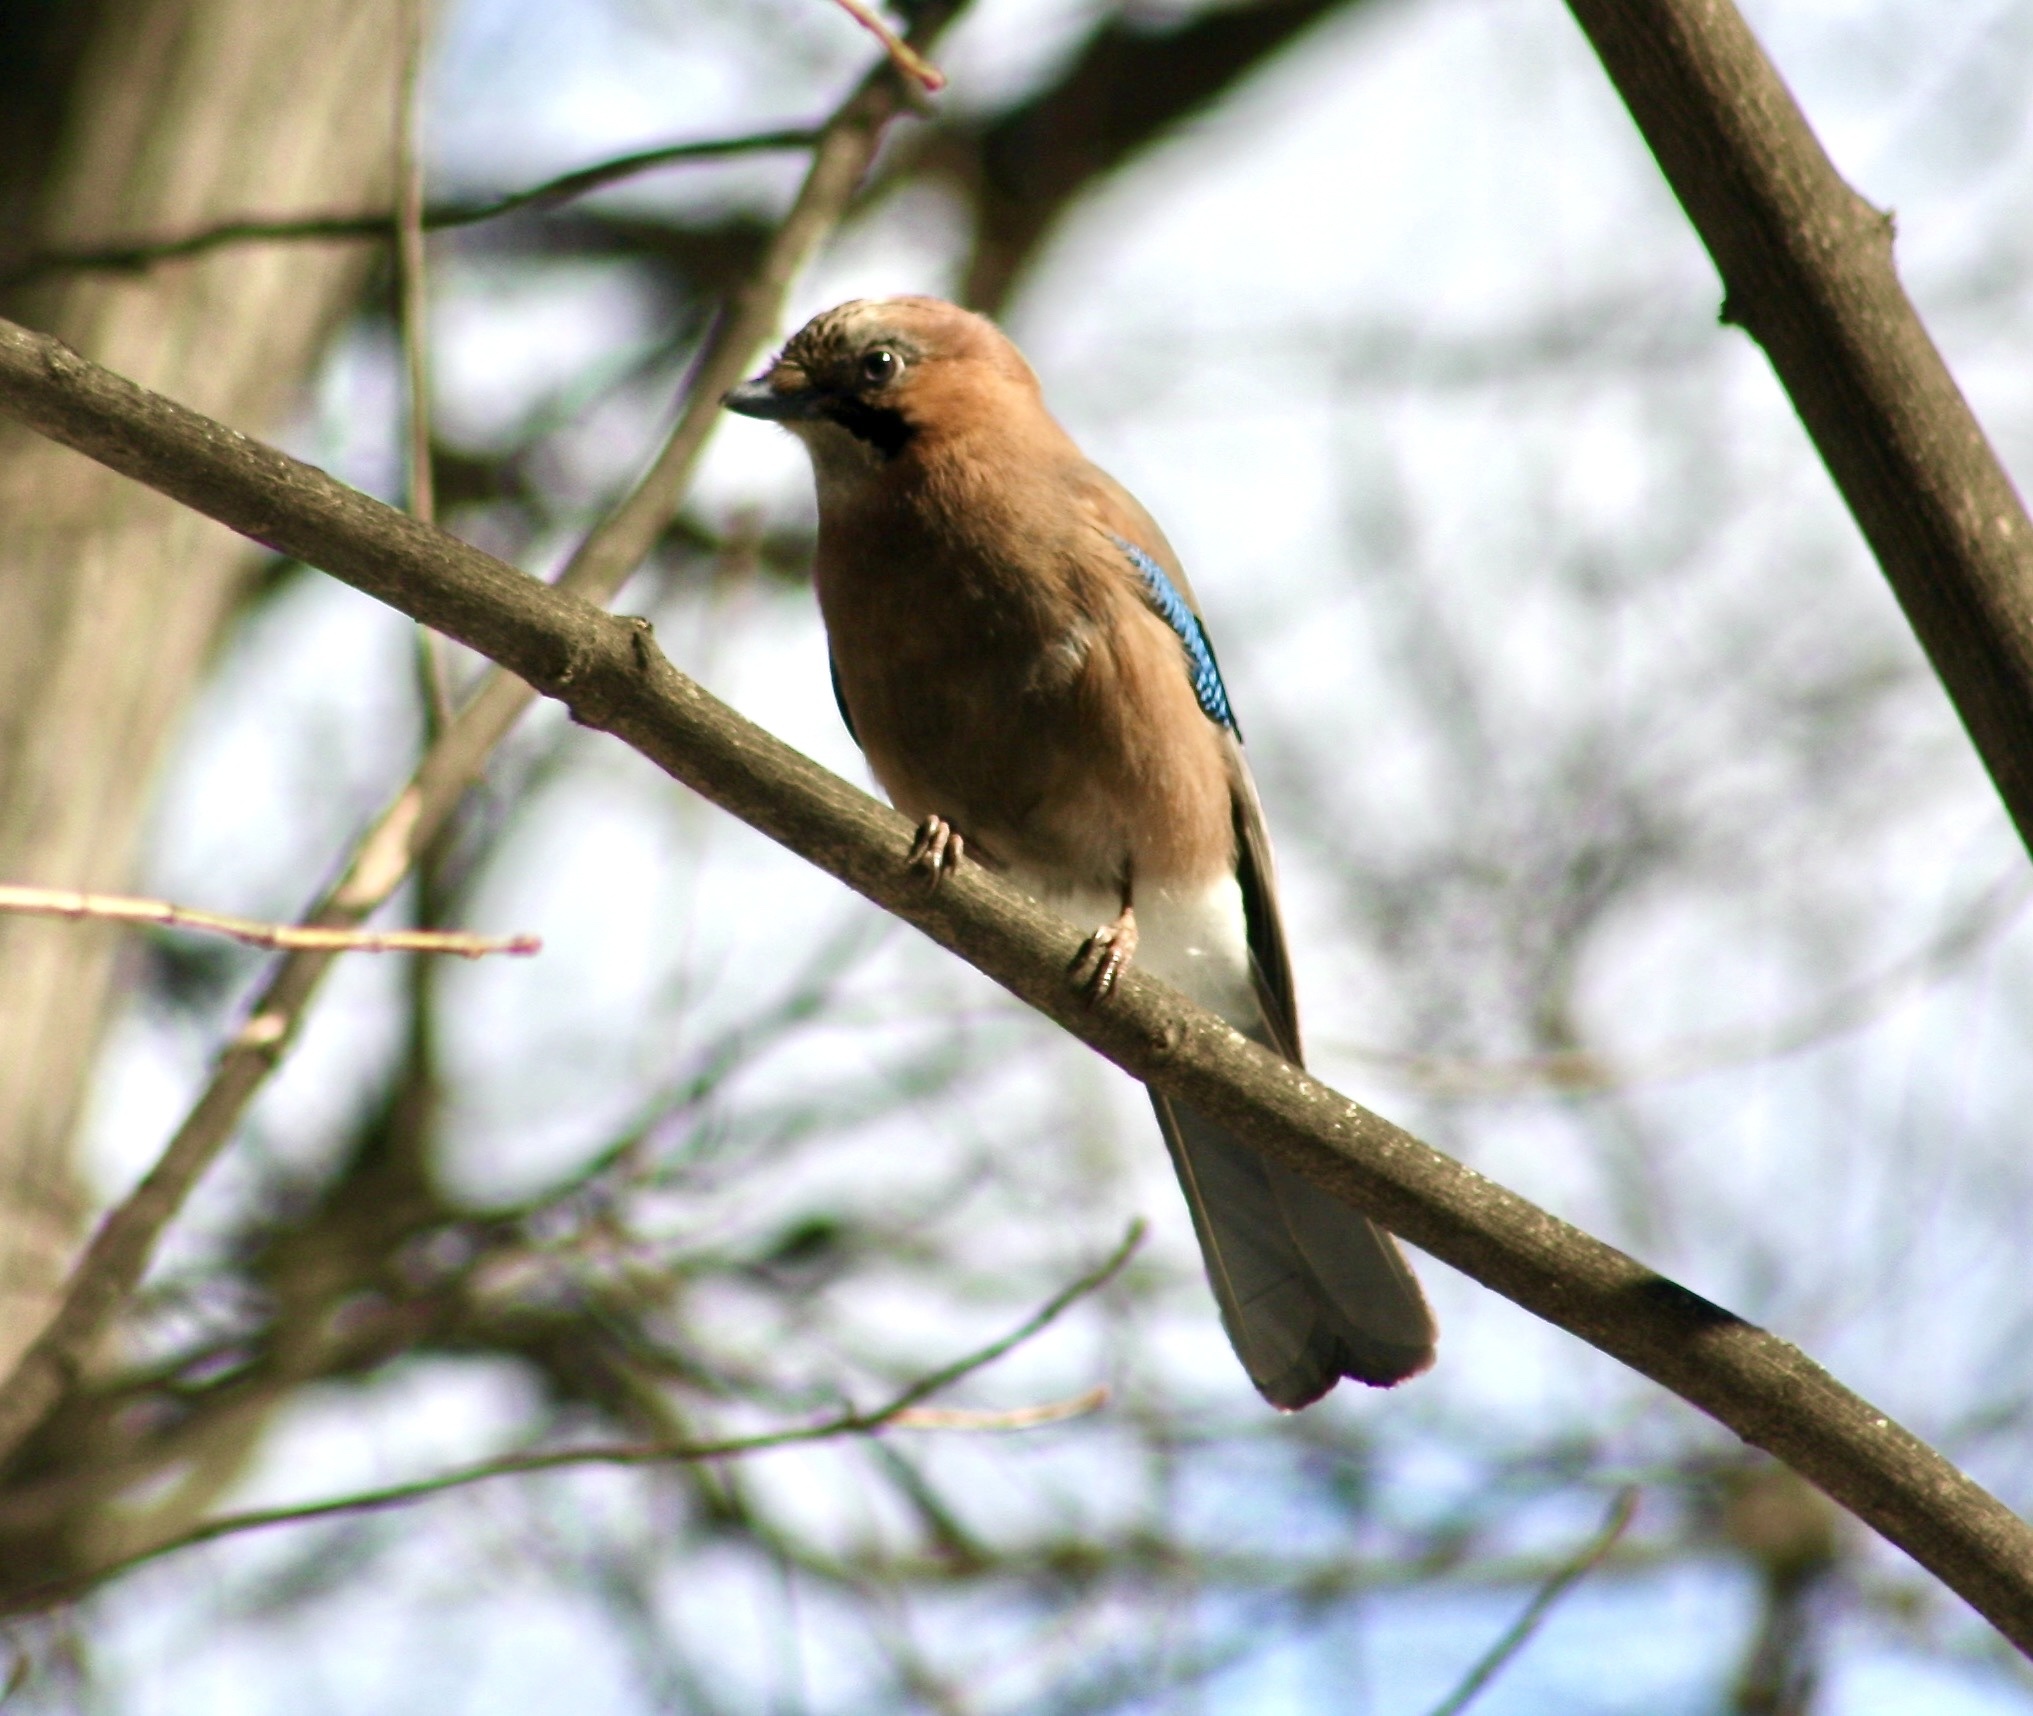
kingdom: Animalia
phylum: Chordata
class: Aves
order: Passeriformes
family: Corvidae
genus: Garrulus
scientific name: Garrulus glandarius
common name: Eurasian jay
